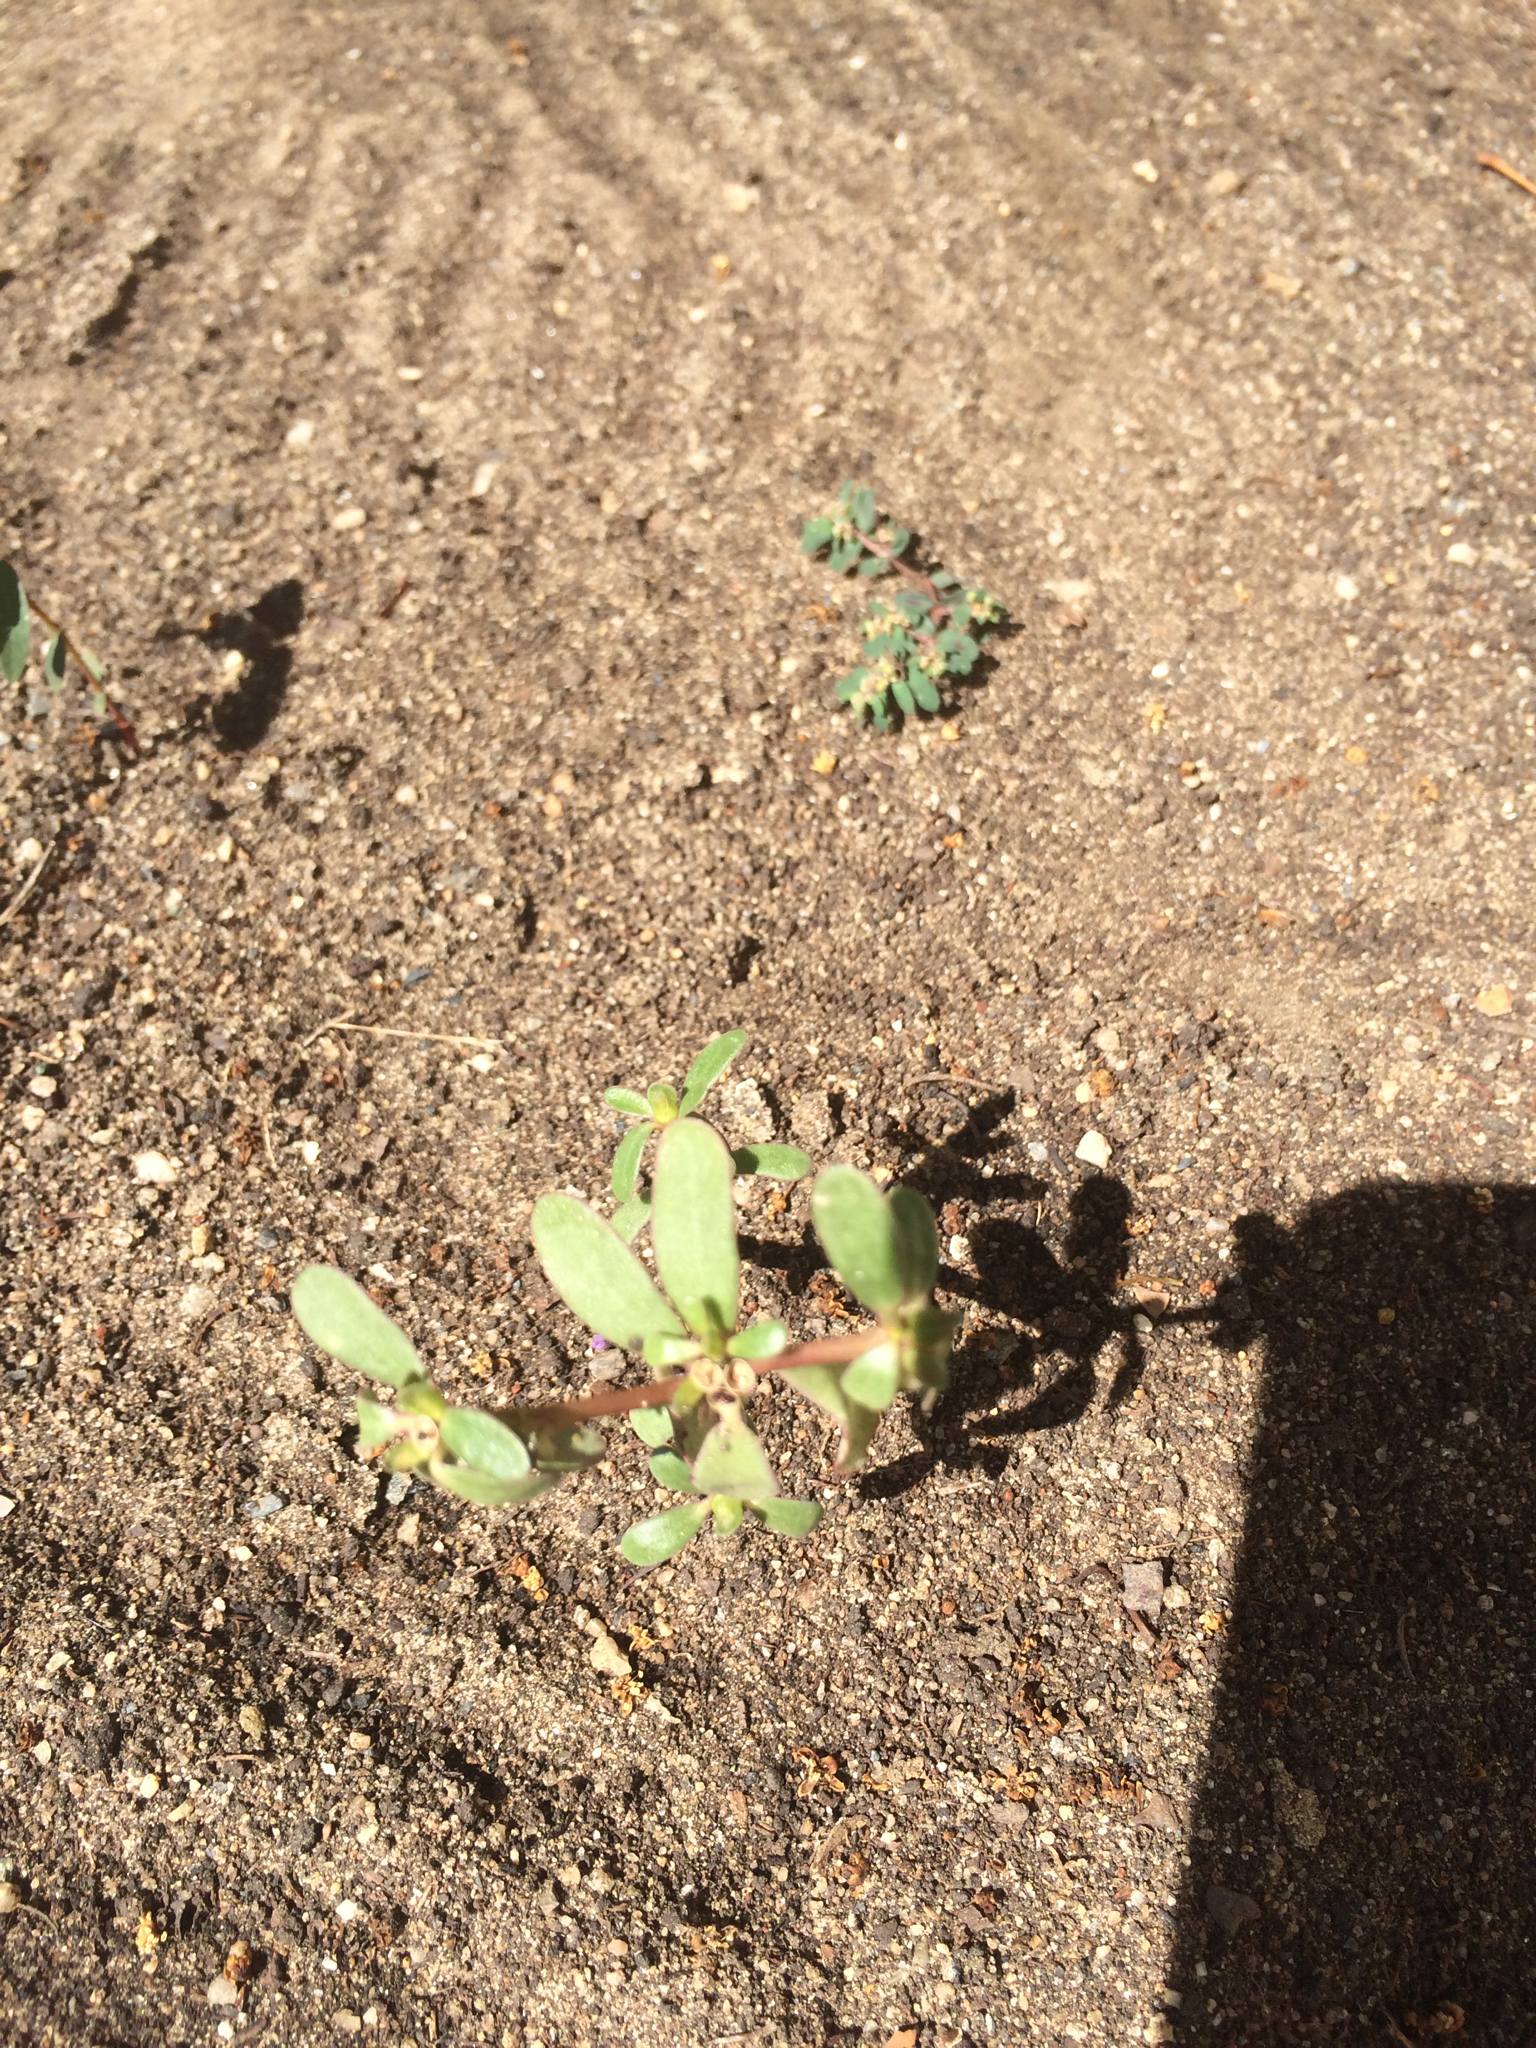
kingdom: Plantae
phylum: Tracheophyta
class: Magnoliopsida
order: Caryophyllales
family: Portulacaceae
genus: Portulaca
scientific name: Portulaca oleracea
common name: Common purslane
